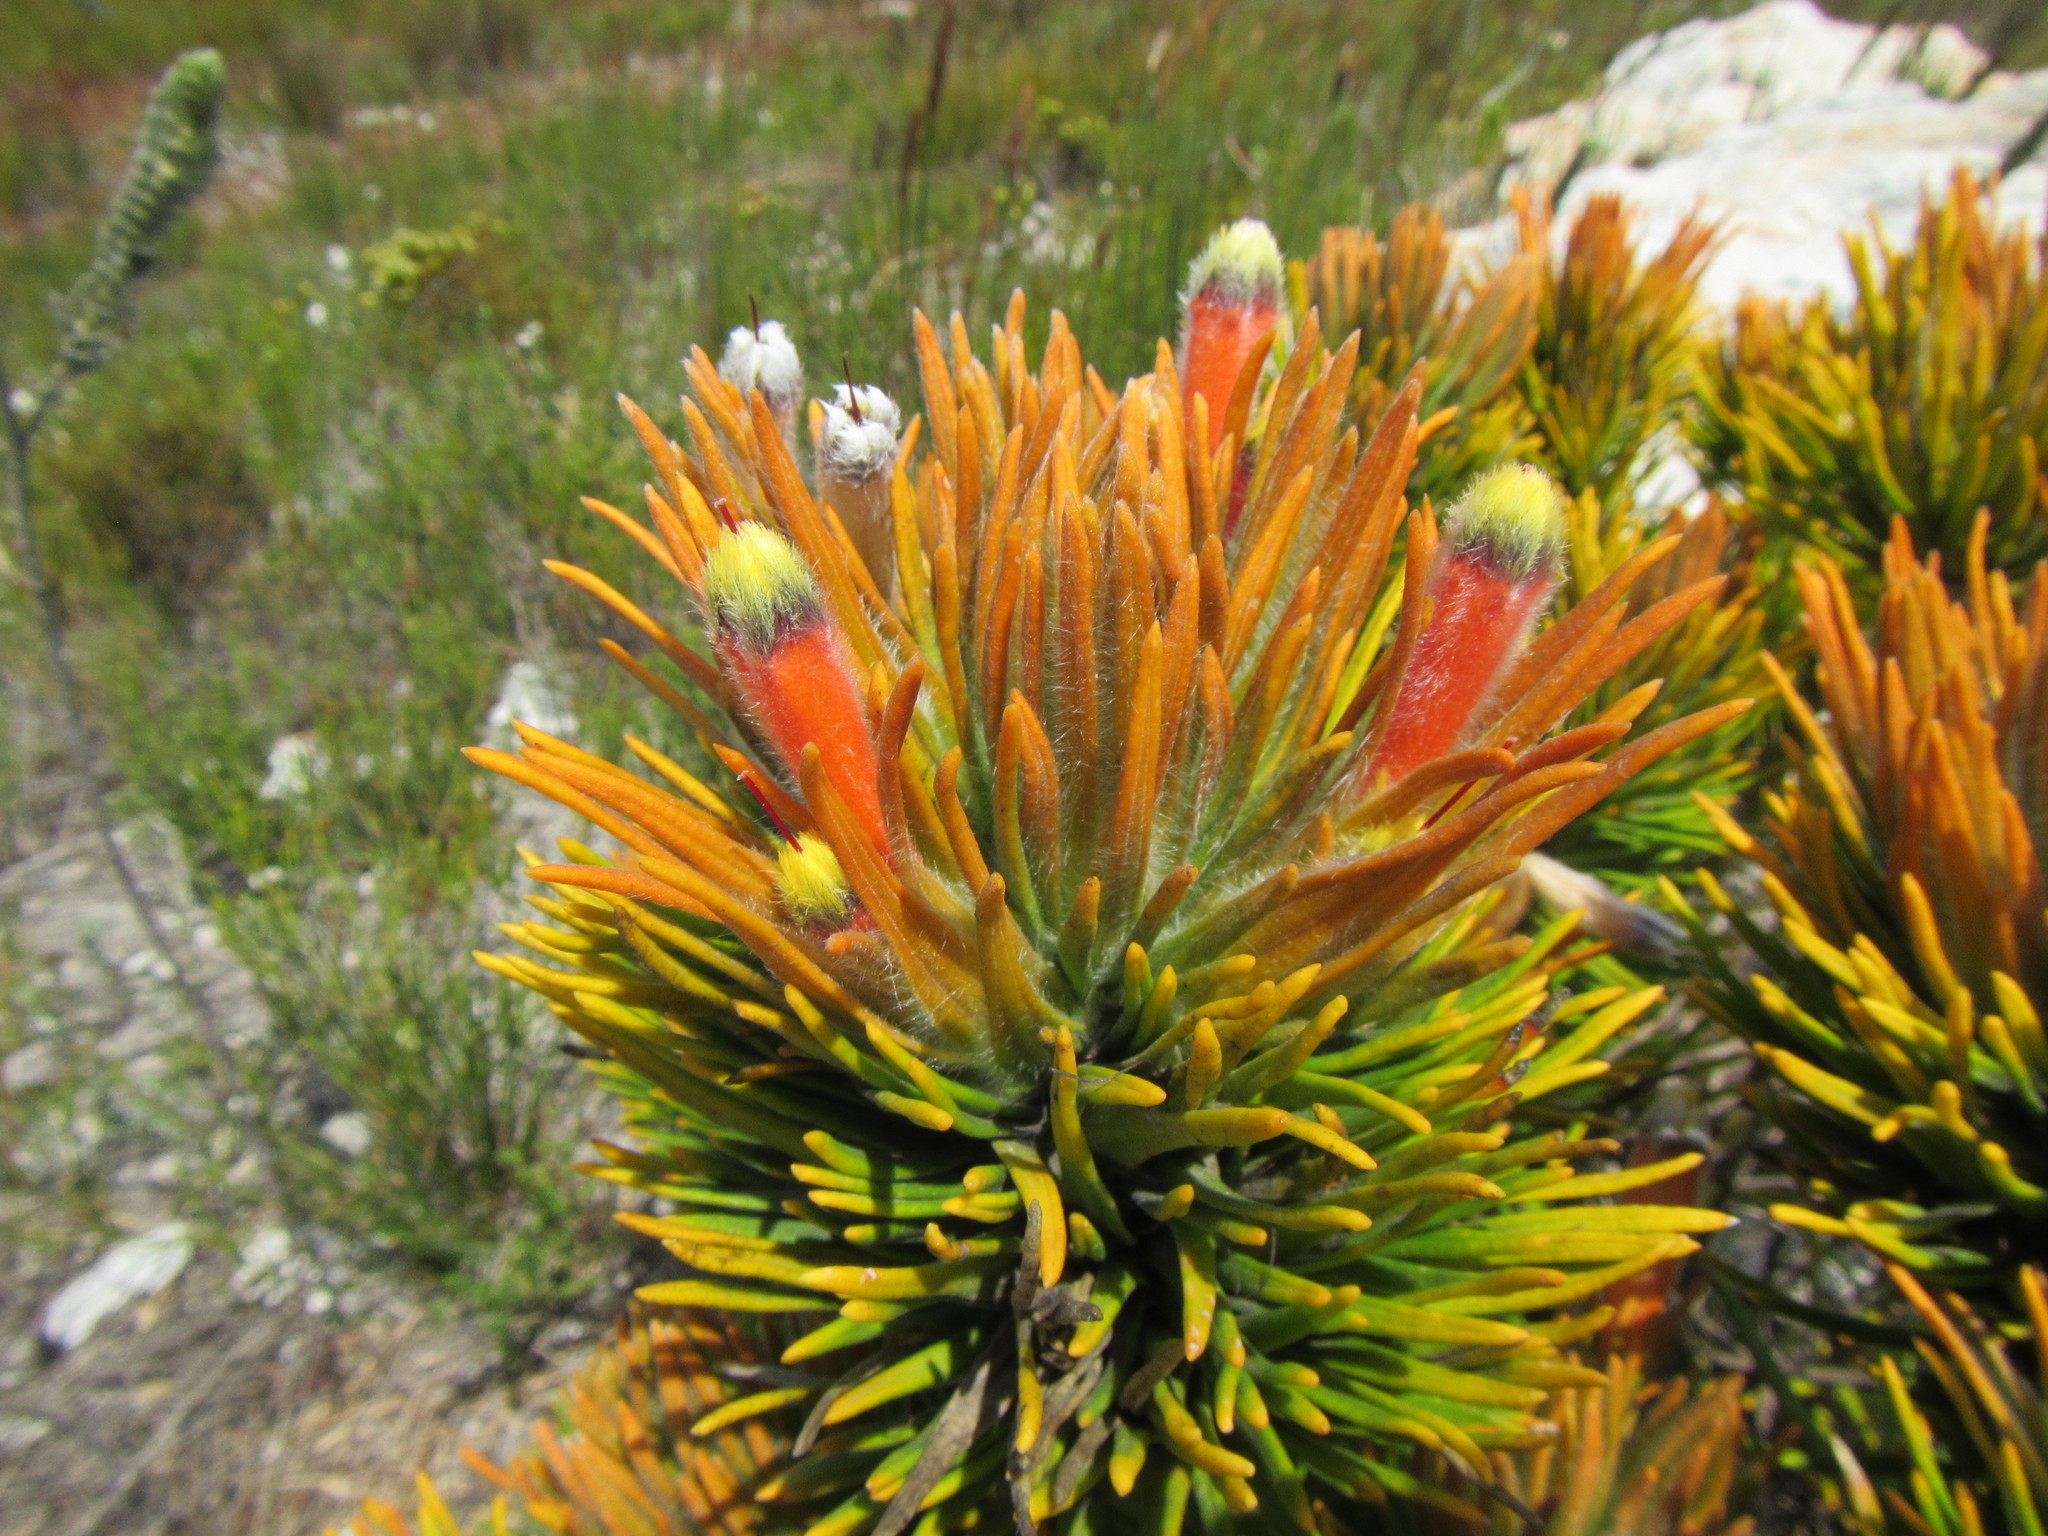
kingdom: Plantae
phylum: Tracheophyta
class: Magnoliopsida
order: Lamiales
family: Stilbaceae
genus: Retzia
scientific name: Retzia capensis
